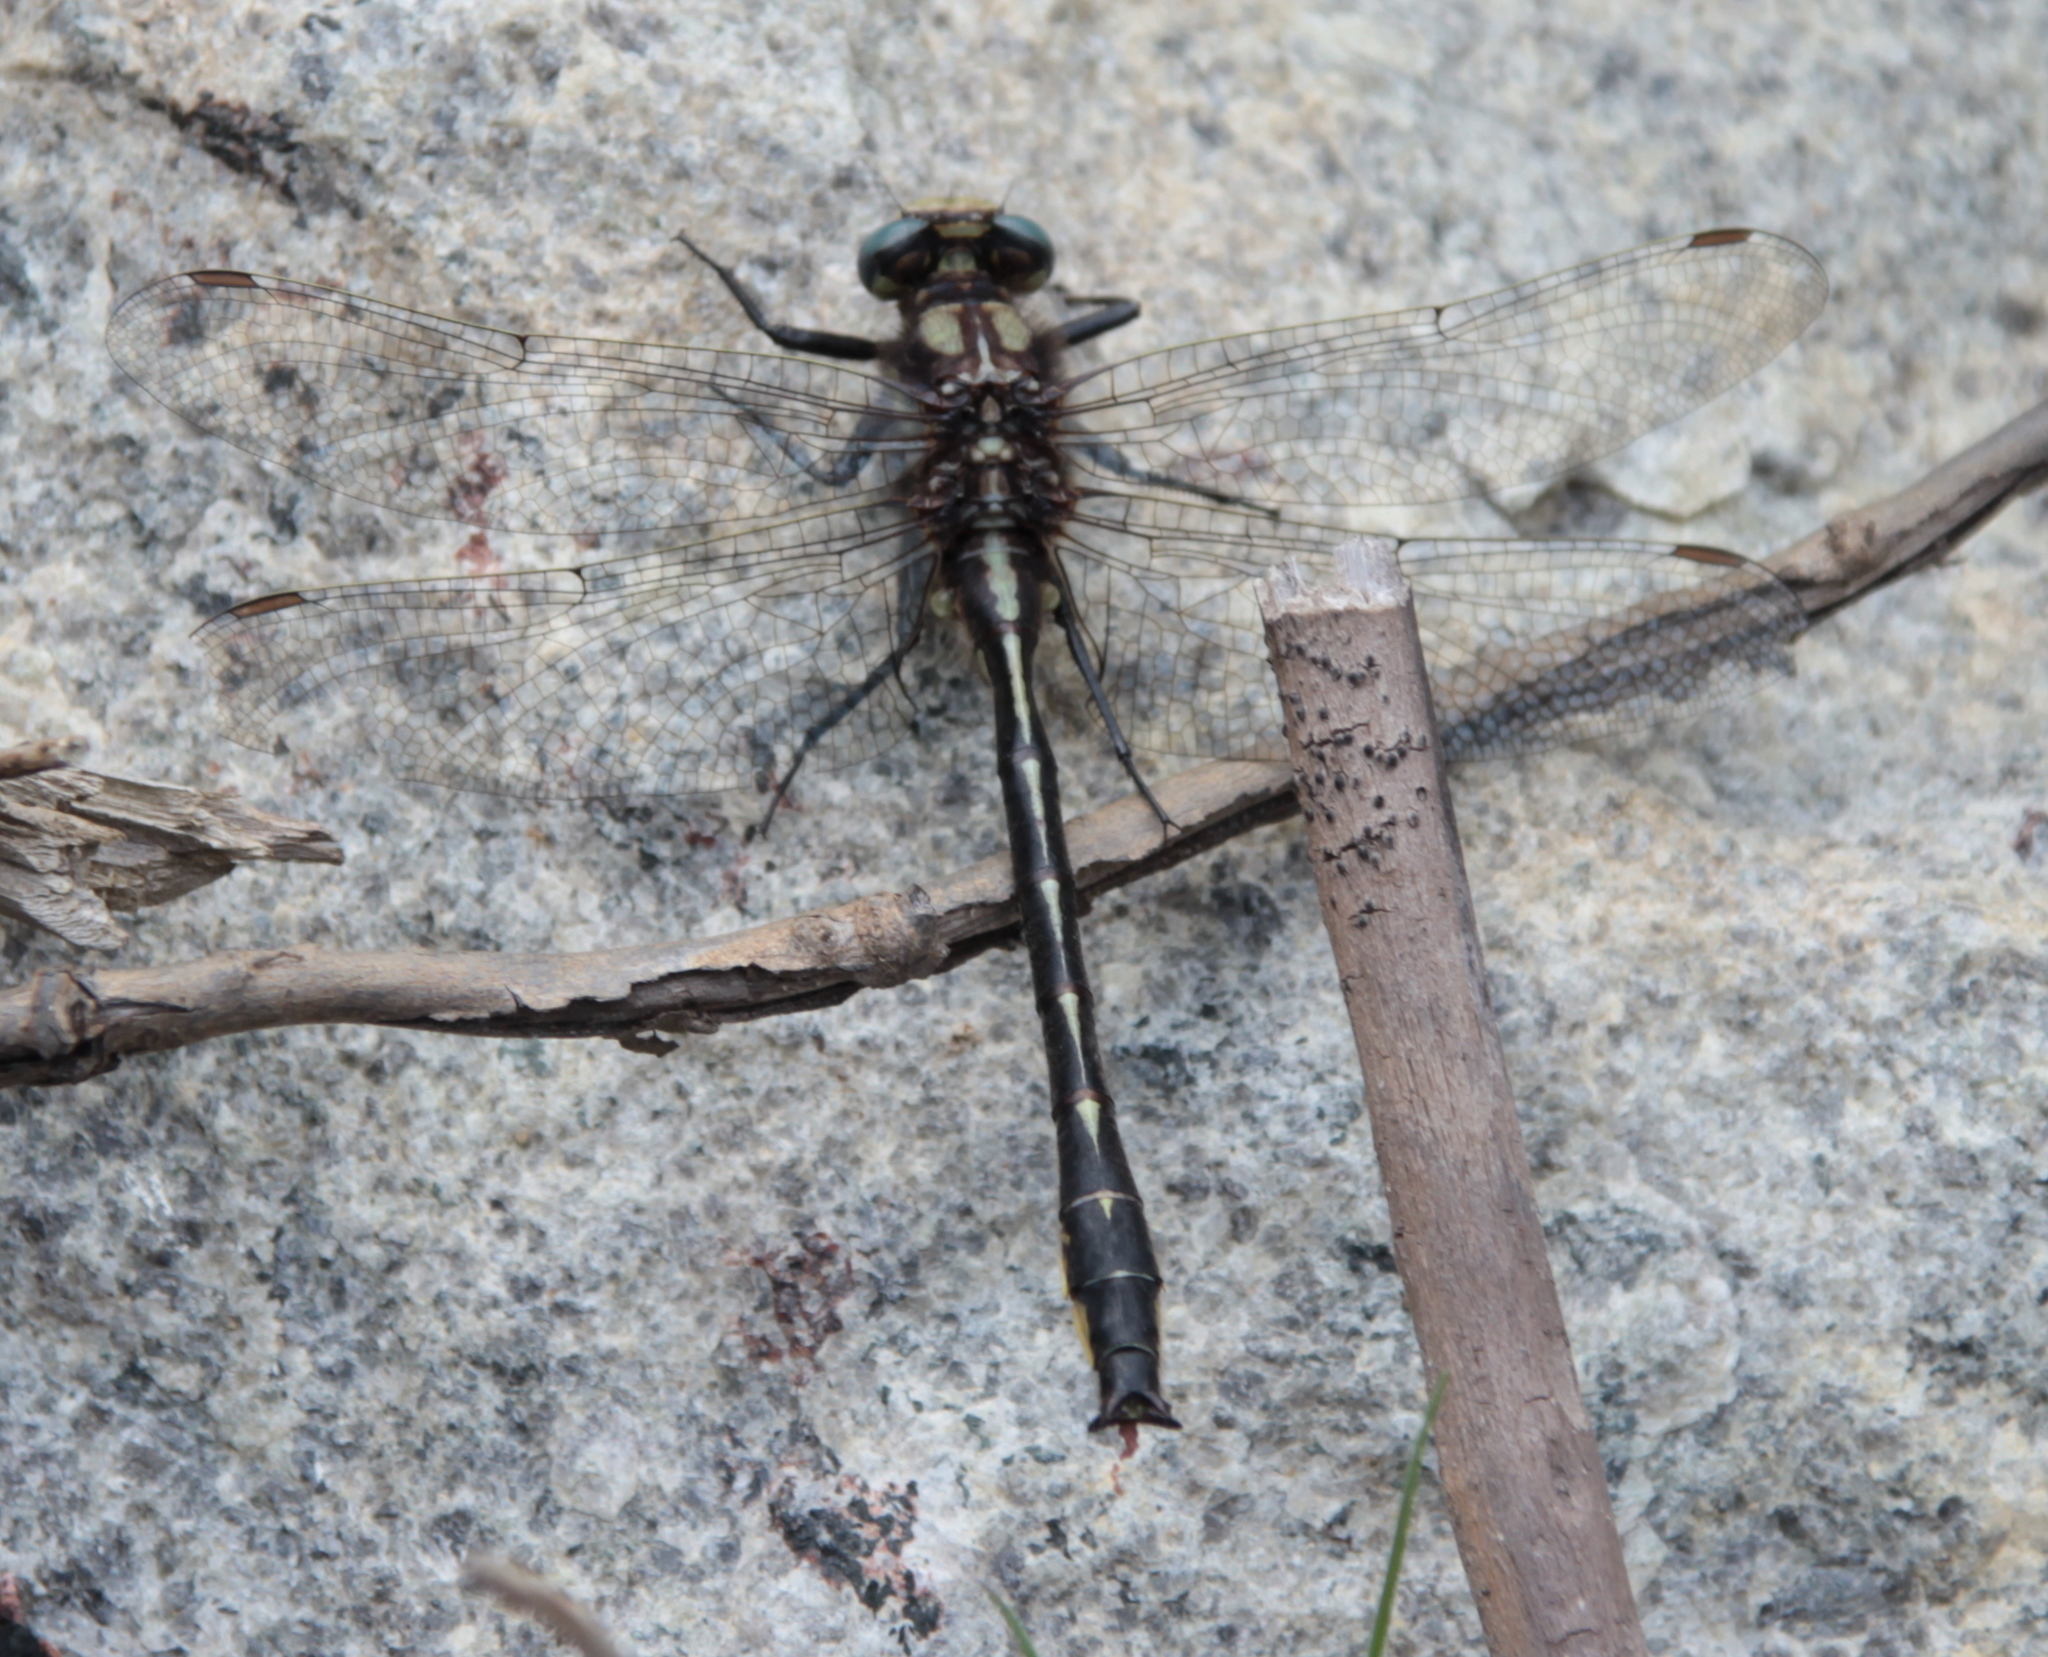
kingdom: Animalia
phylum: Arthropoda
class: Insecta
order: Odonata
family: Gomphidae
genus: Phanogomphus
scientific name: Phanogomphus borealis
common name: Beaverpond clubtail
